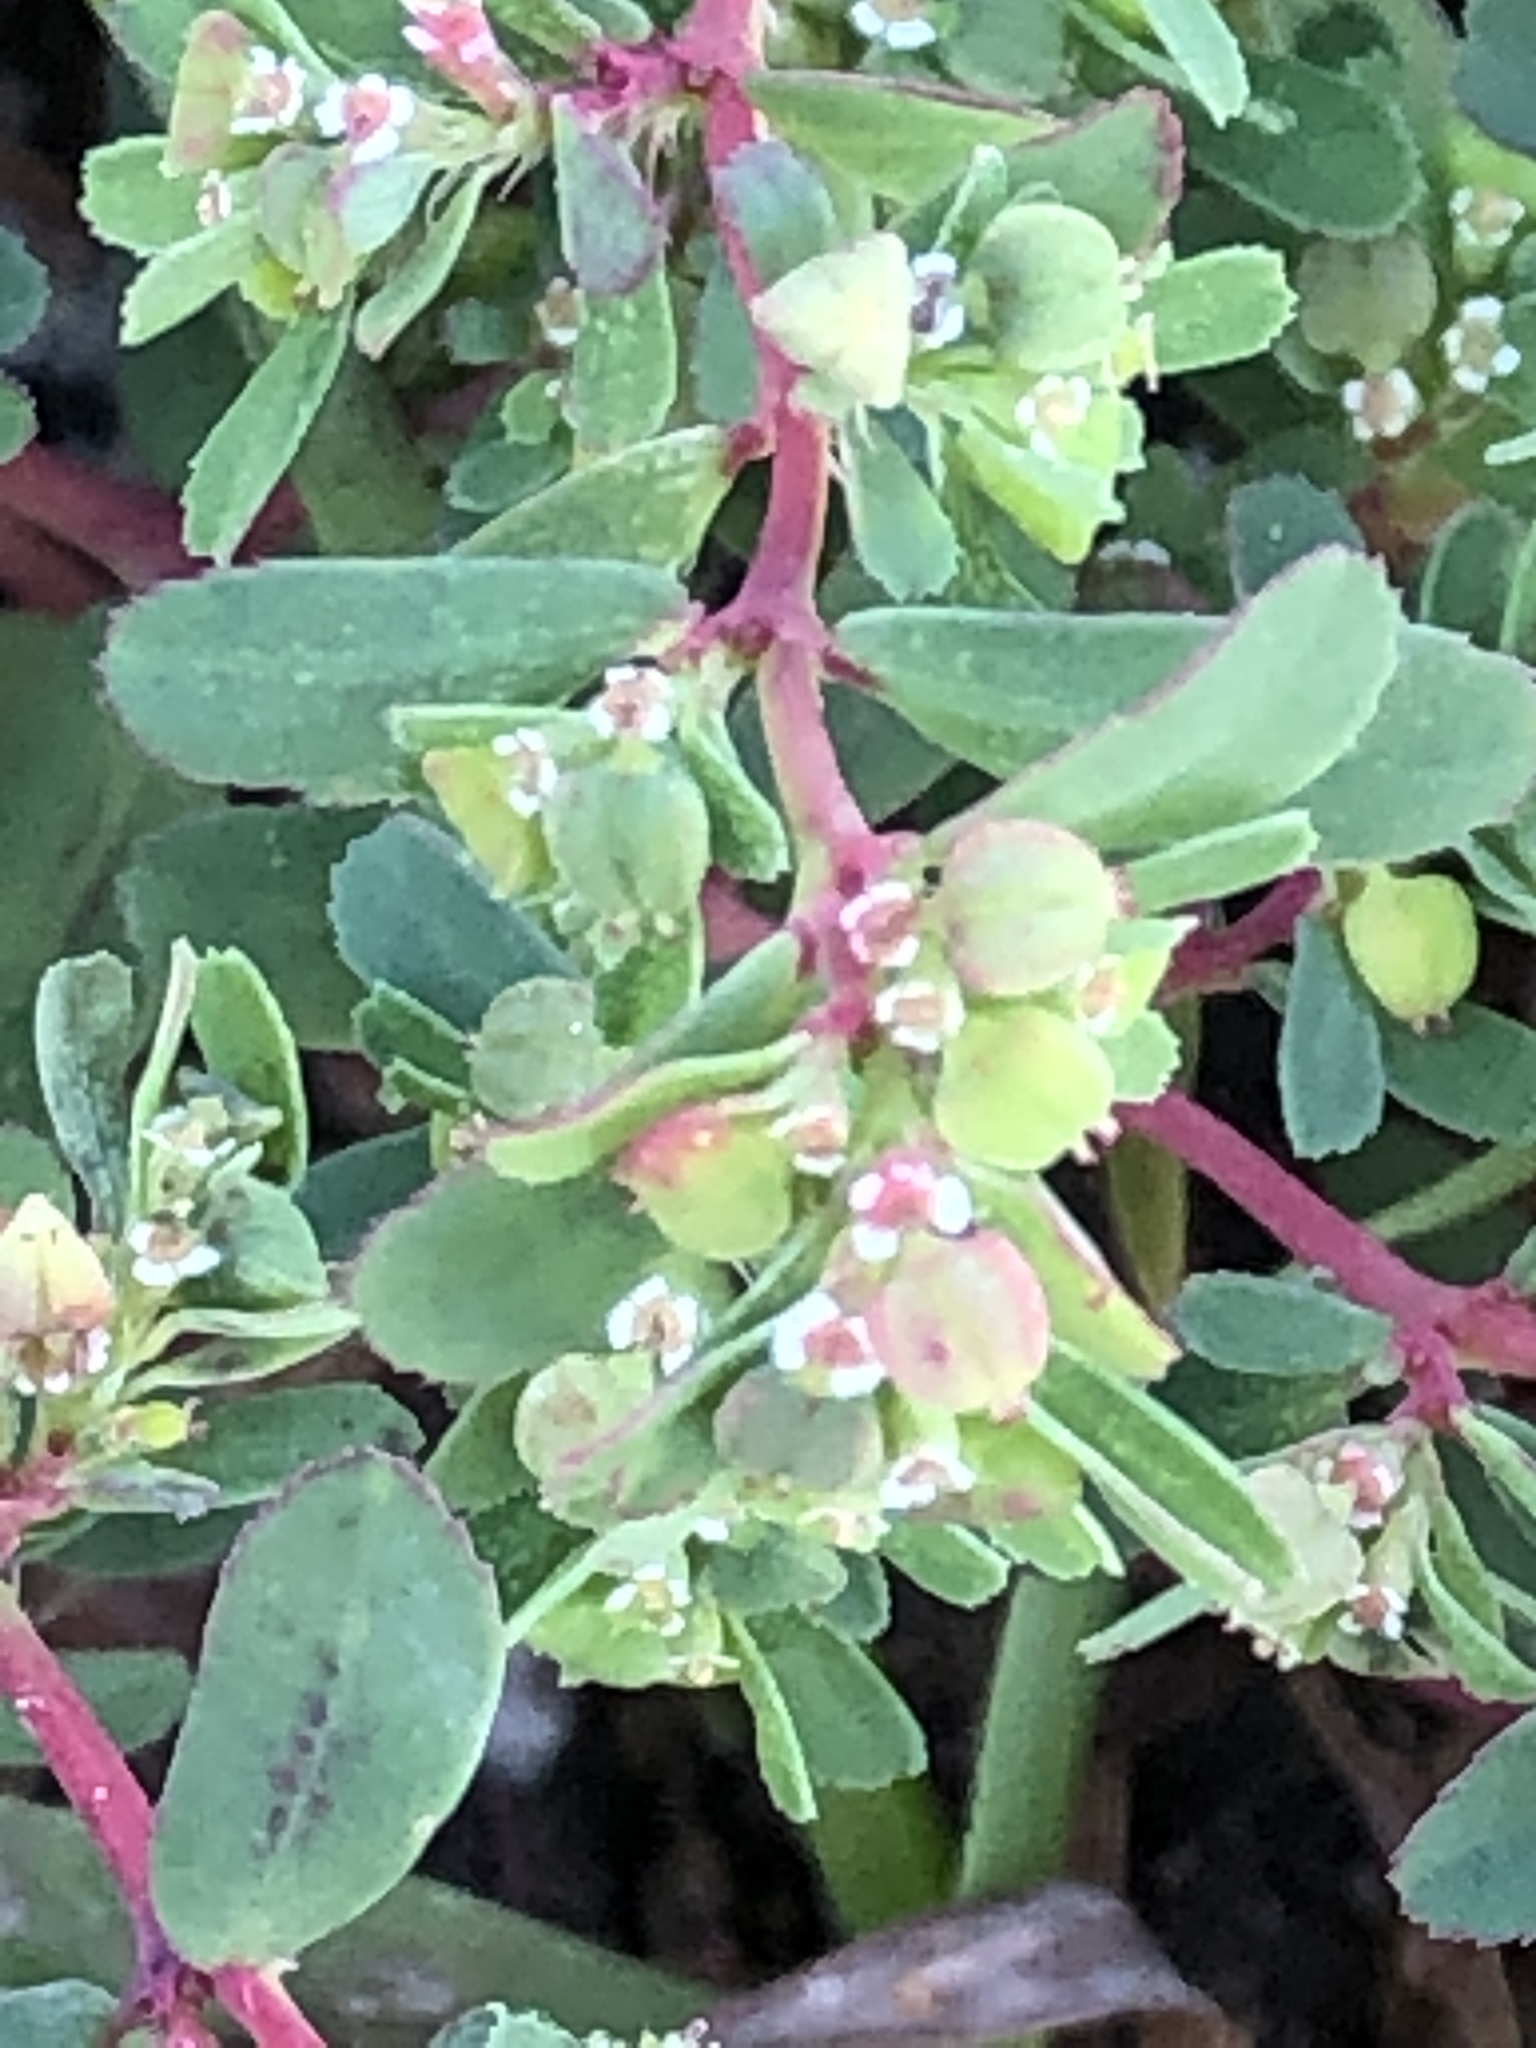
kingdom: Plantae
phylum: Tracheophyta
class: Magnoliopsida
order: Malpighiales
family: Euphorbiaceae
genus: Euphorbia
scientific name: Euphorbia serpillifolia
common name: Thyme-leaf spurge
